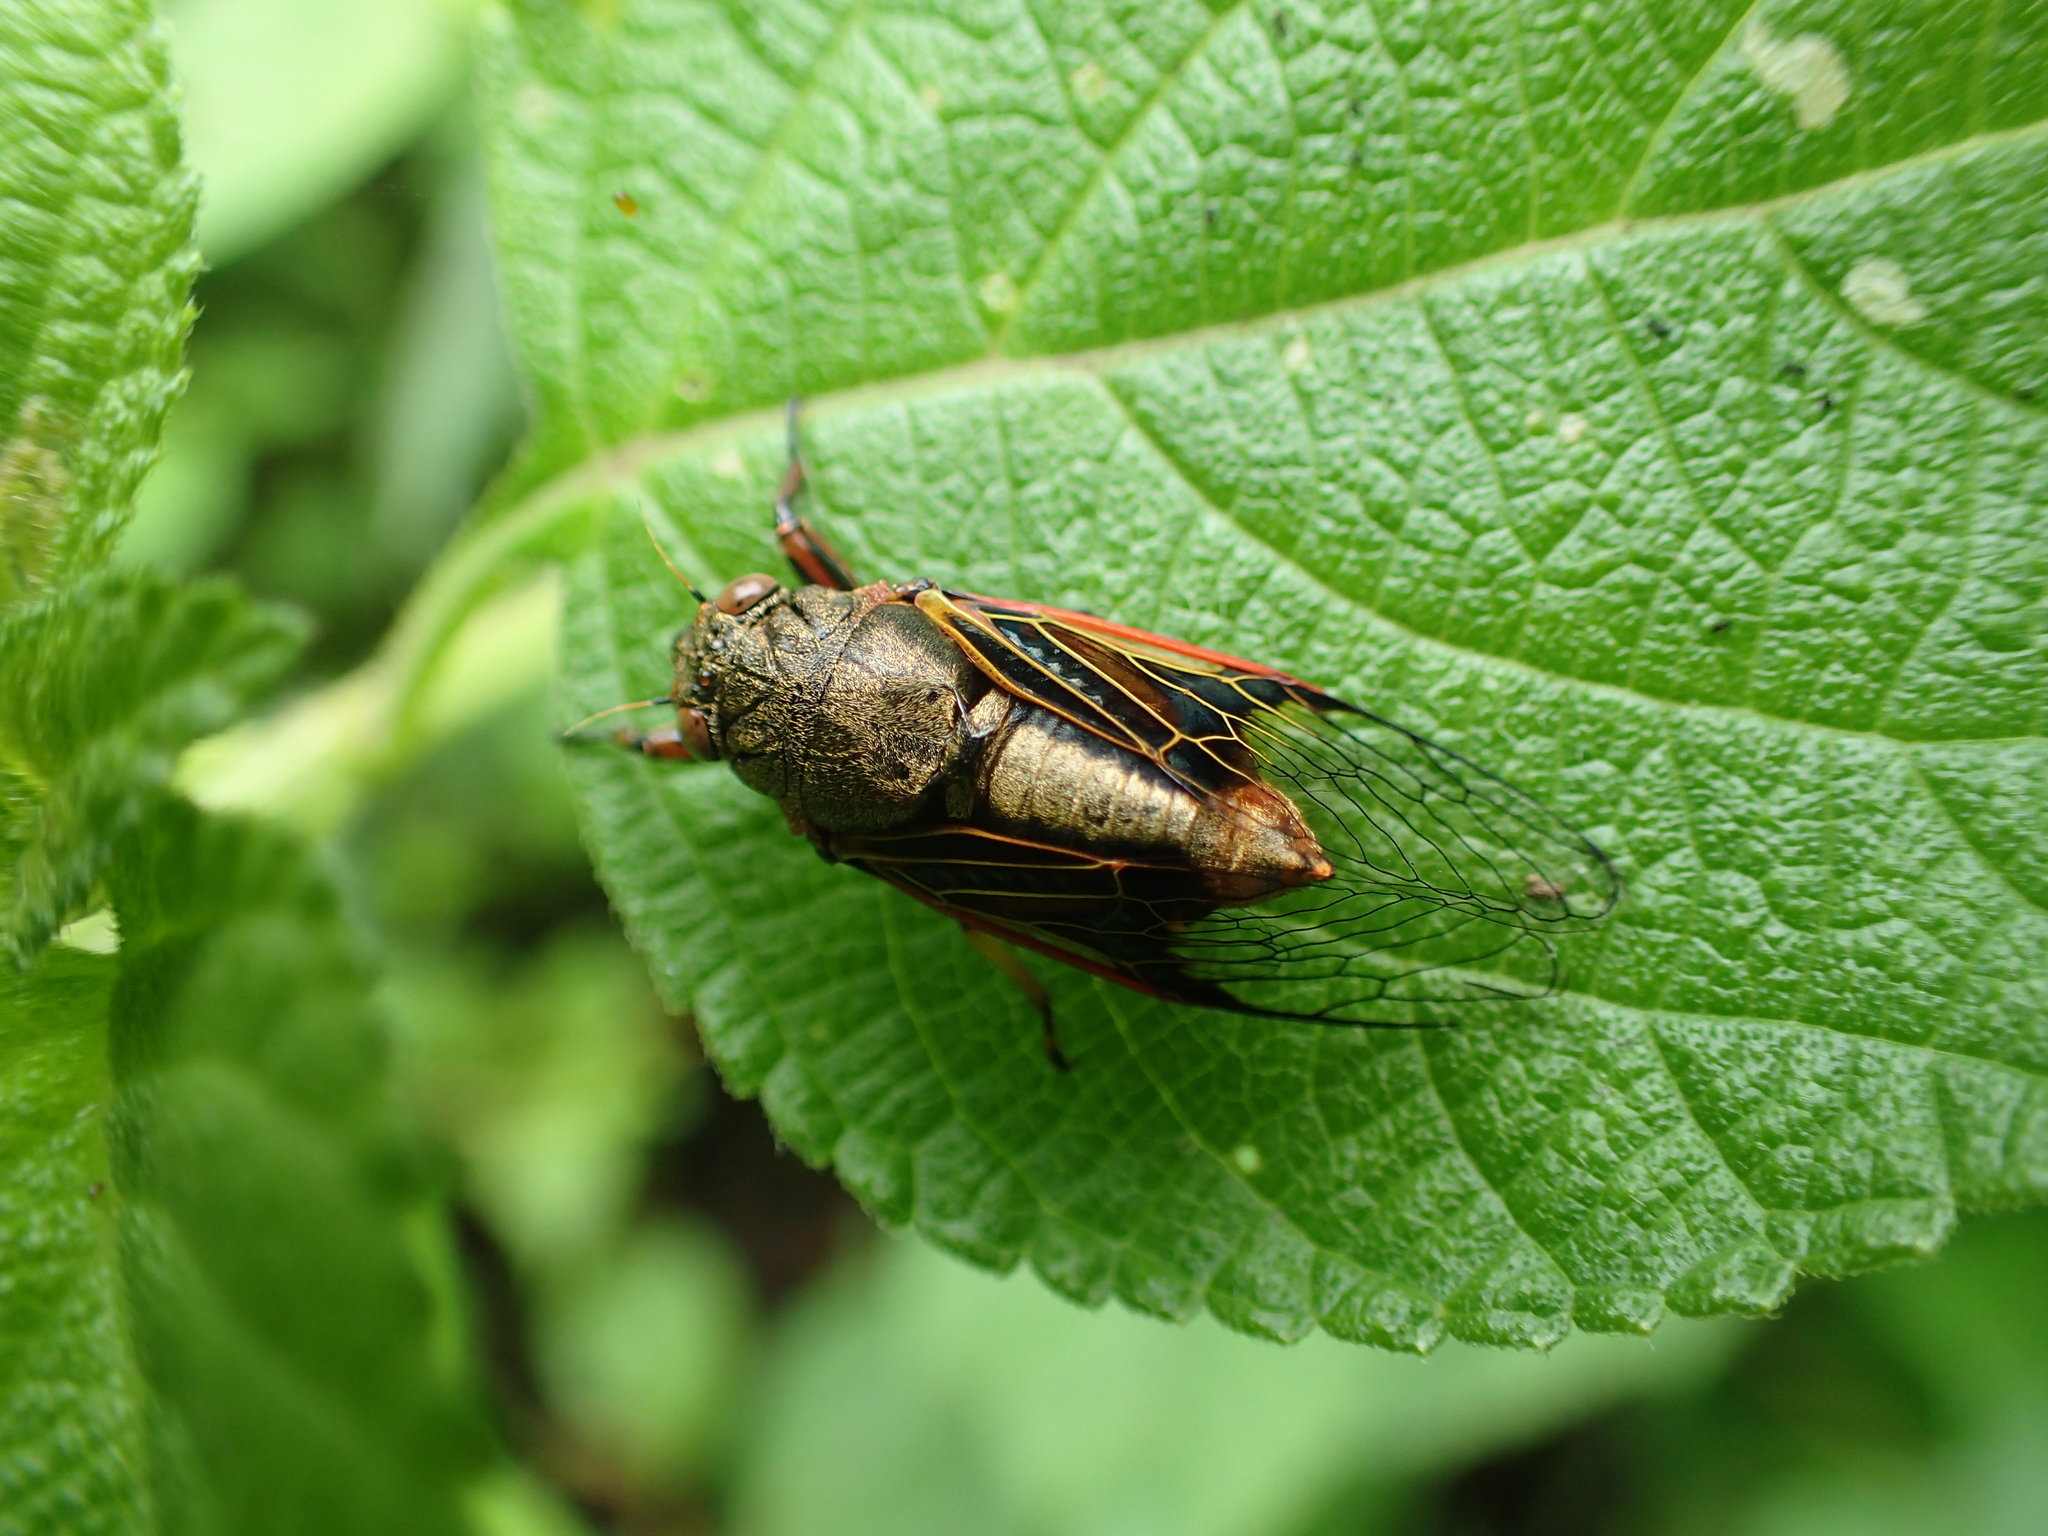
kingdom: Animalia
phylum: Arthropoda
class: Insecta
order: Hemiptera
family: Cicadidae
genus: Mogannia
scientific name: Mogannia formosana
